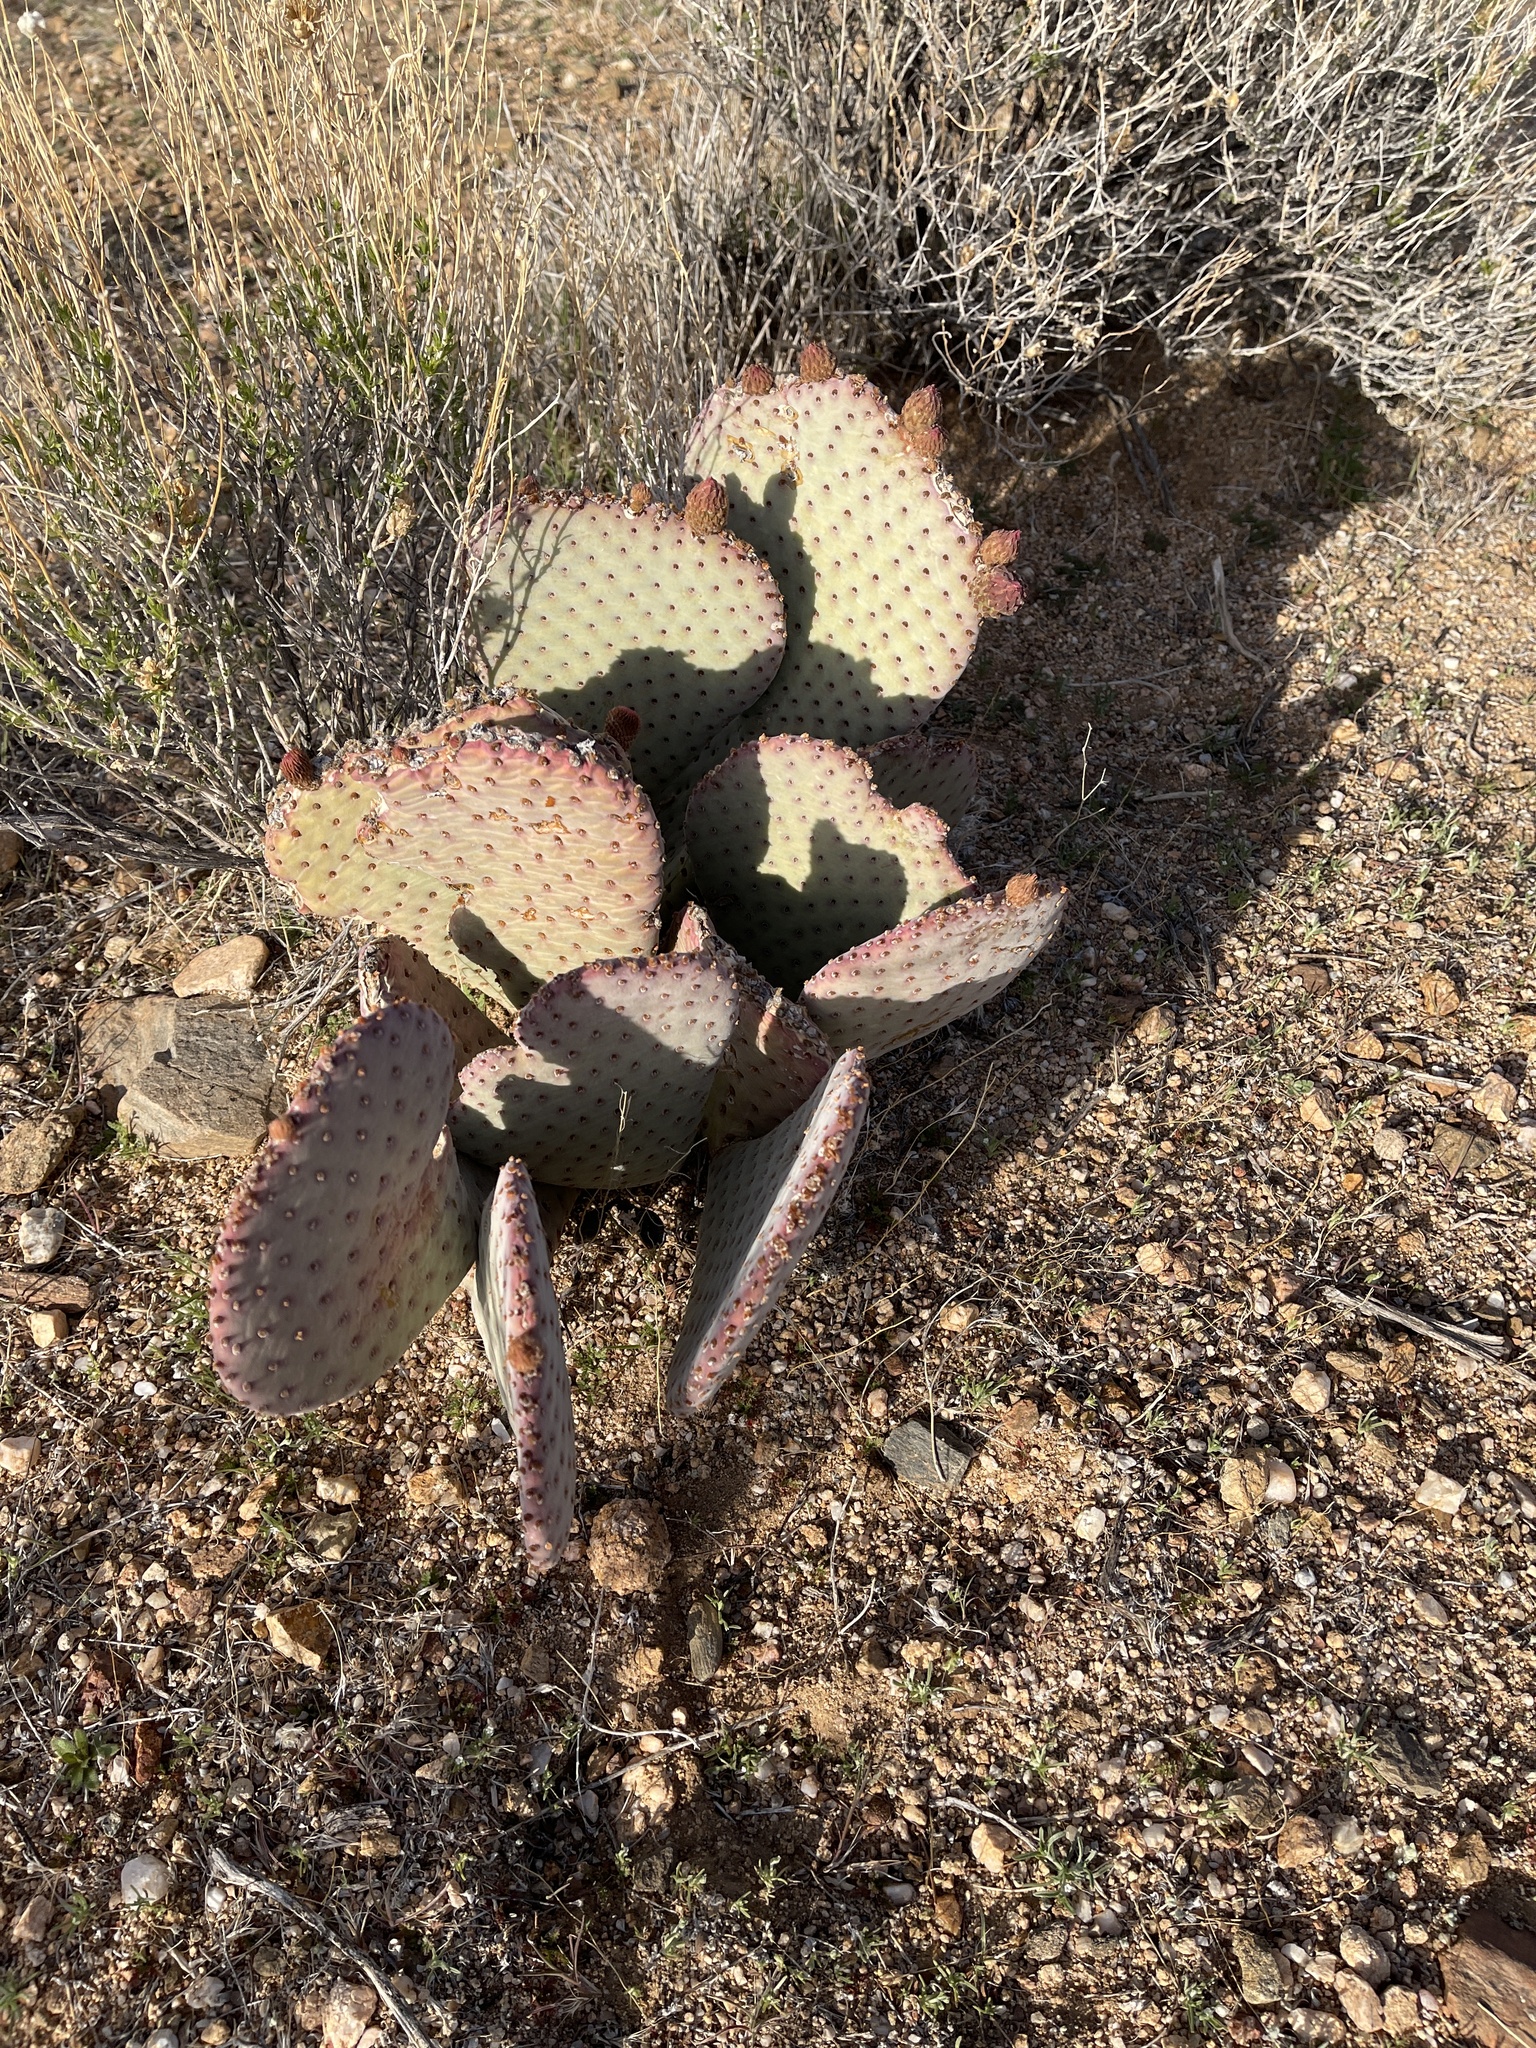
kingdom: Plantae
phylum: Tracheophyta
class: Magnoliopsida
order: Caryophyllales
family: Cactaceae
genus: Opuntia
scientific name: Opuntia basilaris
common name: Beavertail prickly-pear
